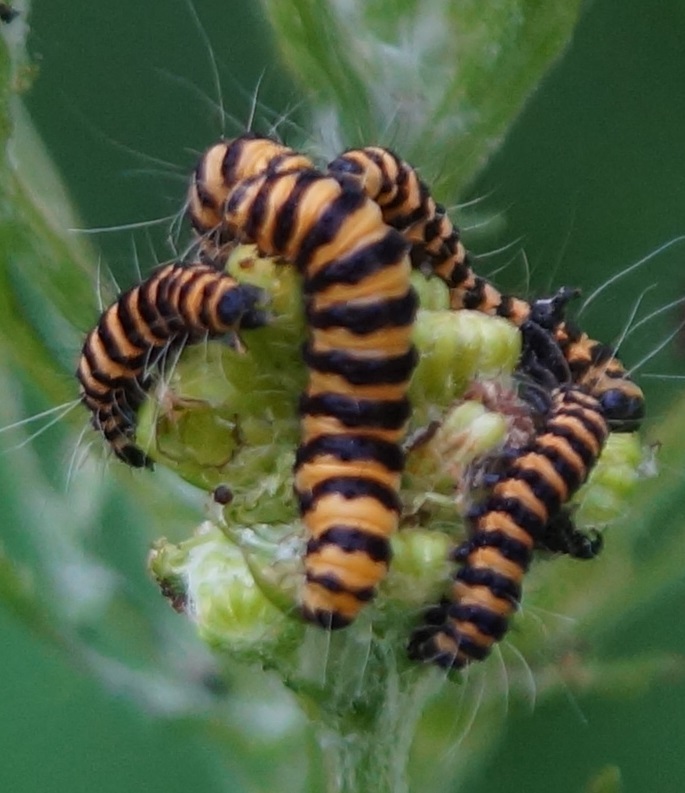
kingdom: Animalia
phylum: Arthropoda
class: Insecta
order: Lepidoptera
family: Erebidae
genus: Tyria
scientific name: Tyria jacobaeae
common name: Cinnabar
